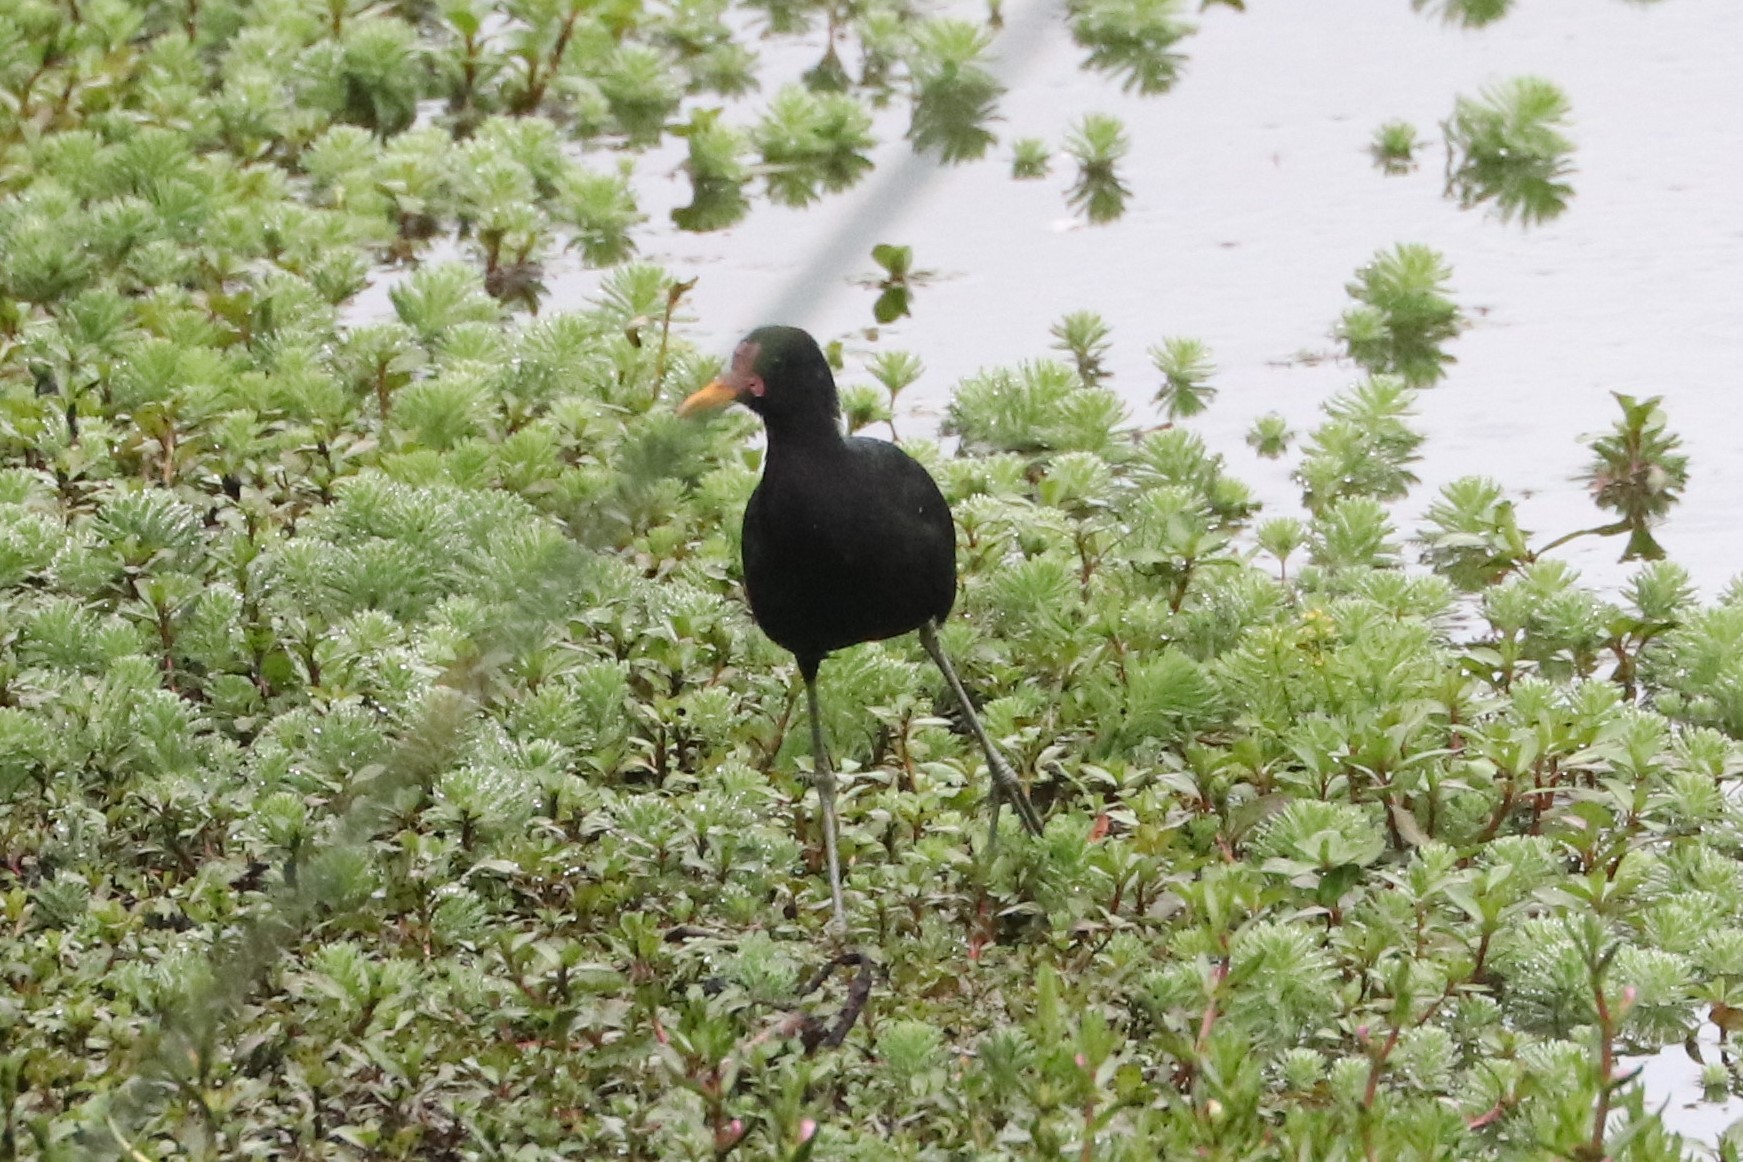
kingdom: Animalia
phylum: Chordata
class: Aves
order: Charadriiformes
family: Jacanidae
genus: Jacana
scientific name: Jacana jacana
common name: Wattled jacana
